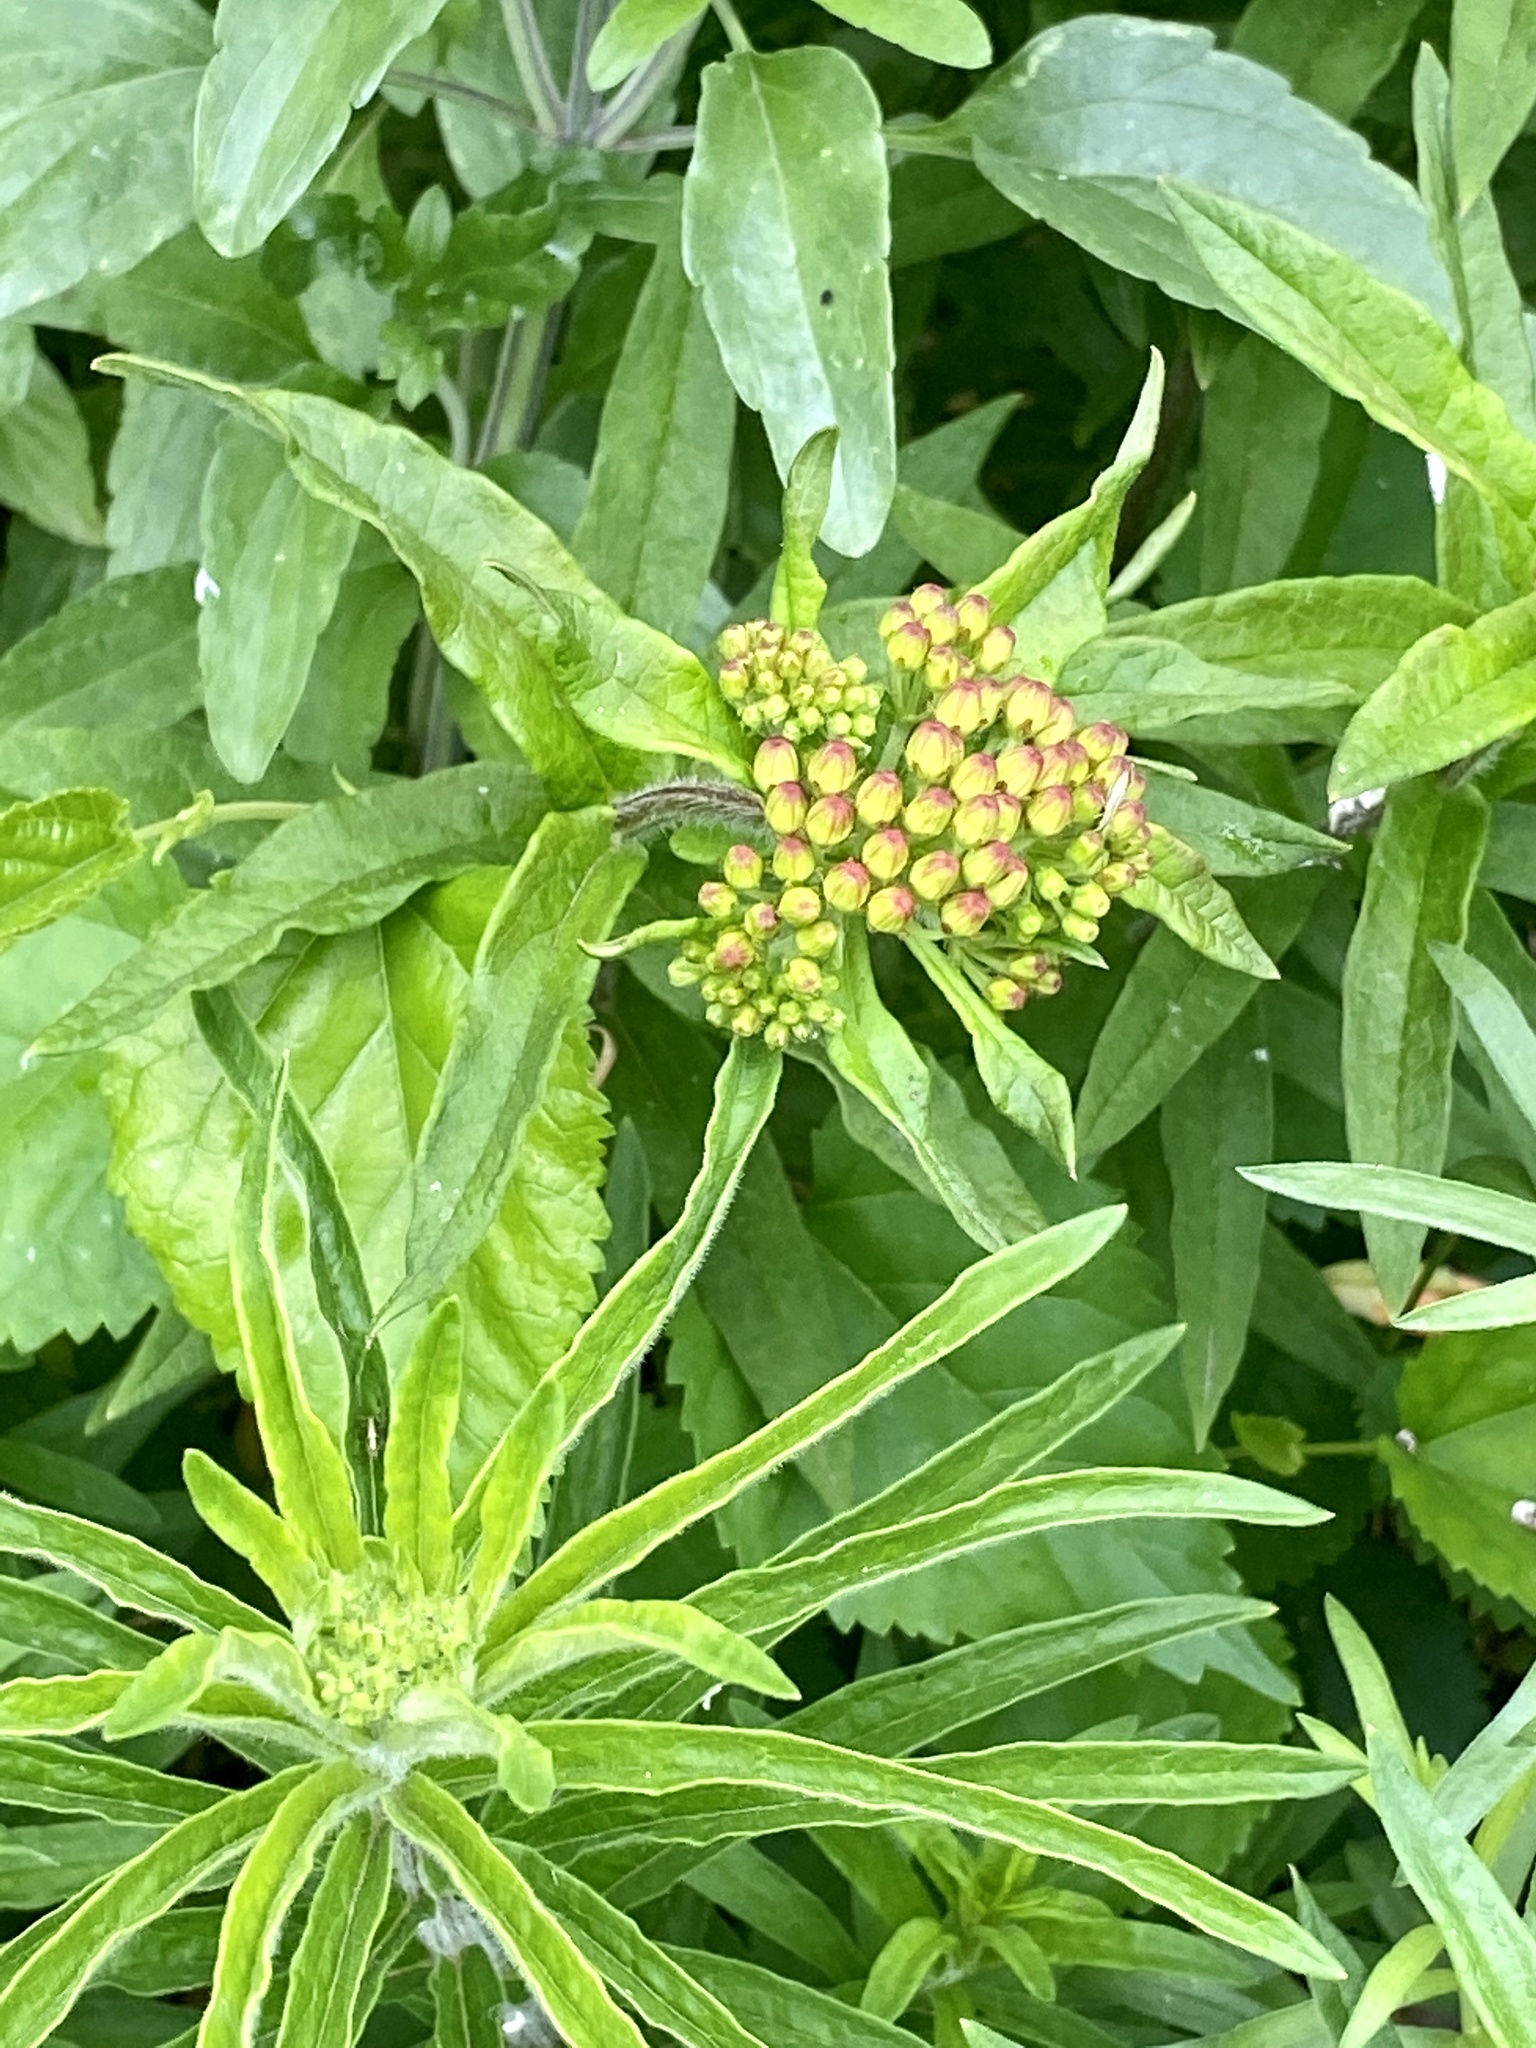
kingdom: Plantae
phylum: Tracheophyta
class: Magnoliopsida
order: Gentianales
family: Apocynaceae
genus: Asclepias
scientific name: Asclepias tuberosa
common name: Butterfly milkweed
